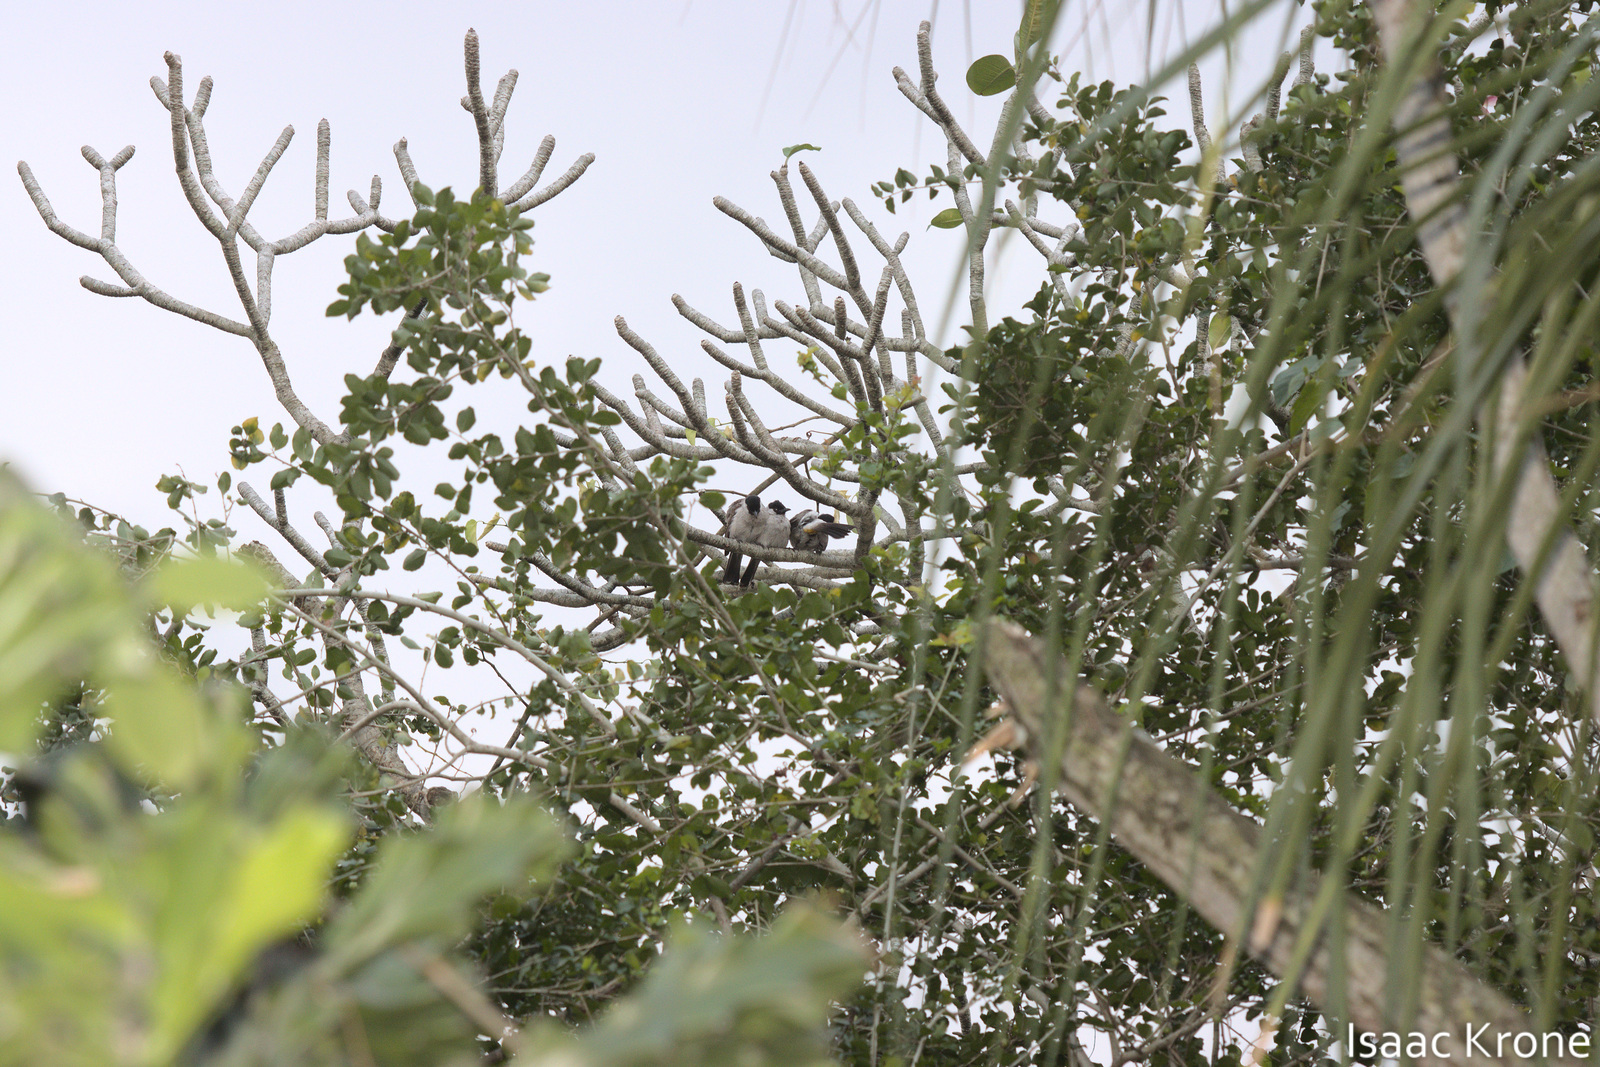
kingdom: Animalia
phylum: Chordata
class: Aves
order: Passeriformes
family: Pycnonotidae
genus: Pycnonotus
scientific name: Pycnonotus aurigaster
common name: Sooty-headed bulbul
